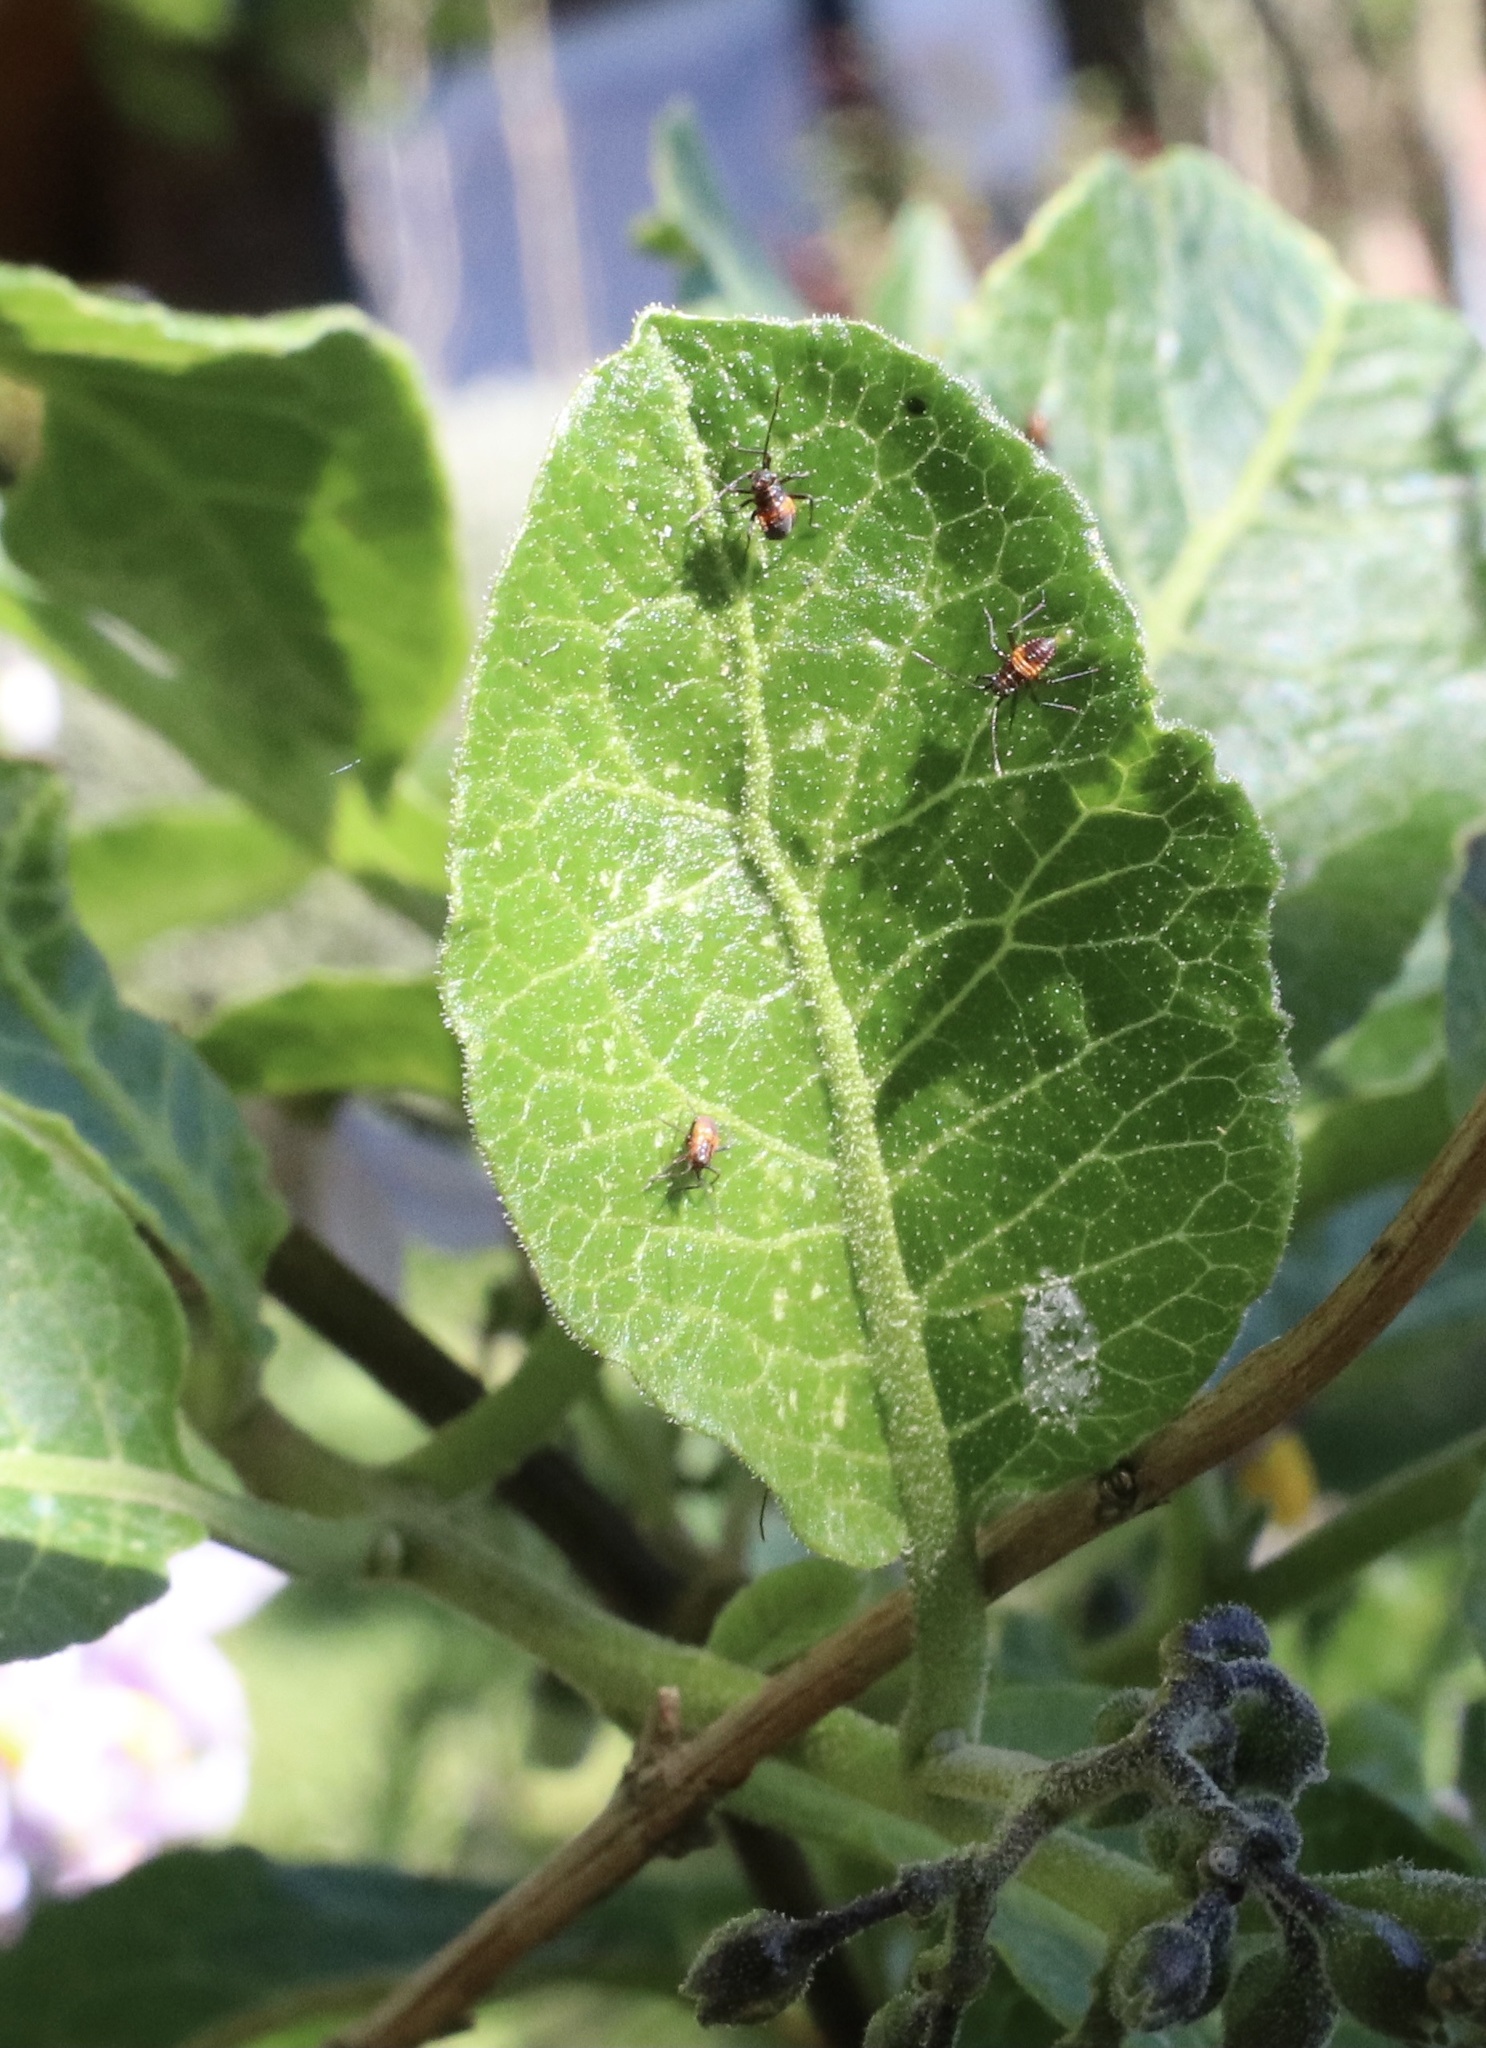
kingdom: Animalia
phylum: Arthropoda
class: Insecta
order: Hemiptera
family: Miridae
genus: Eurylomata
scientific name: Eurylomata picturata
